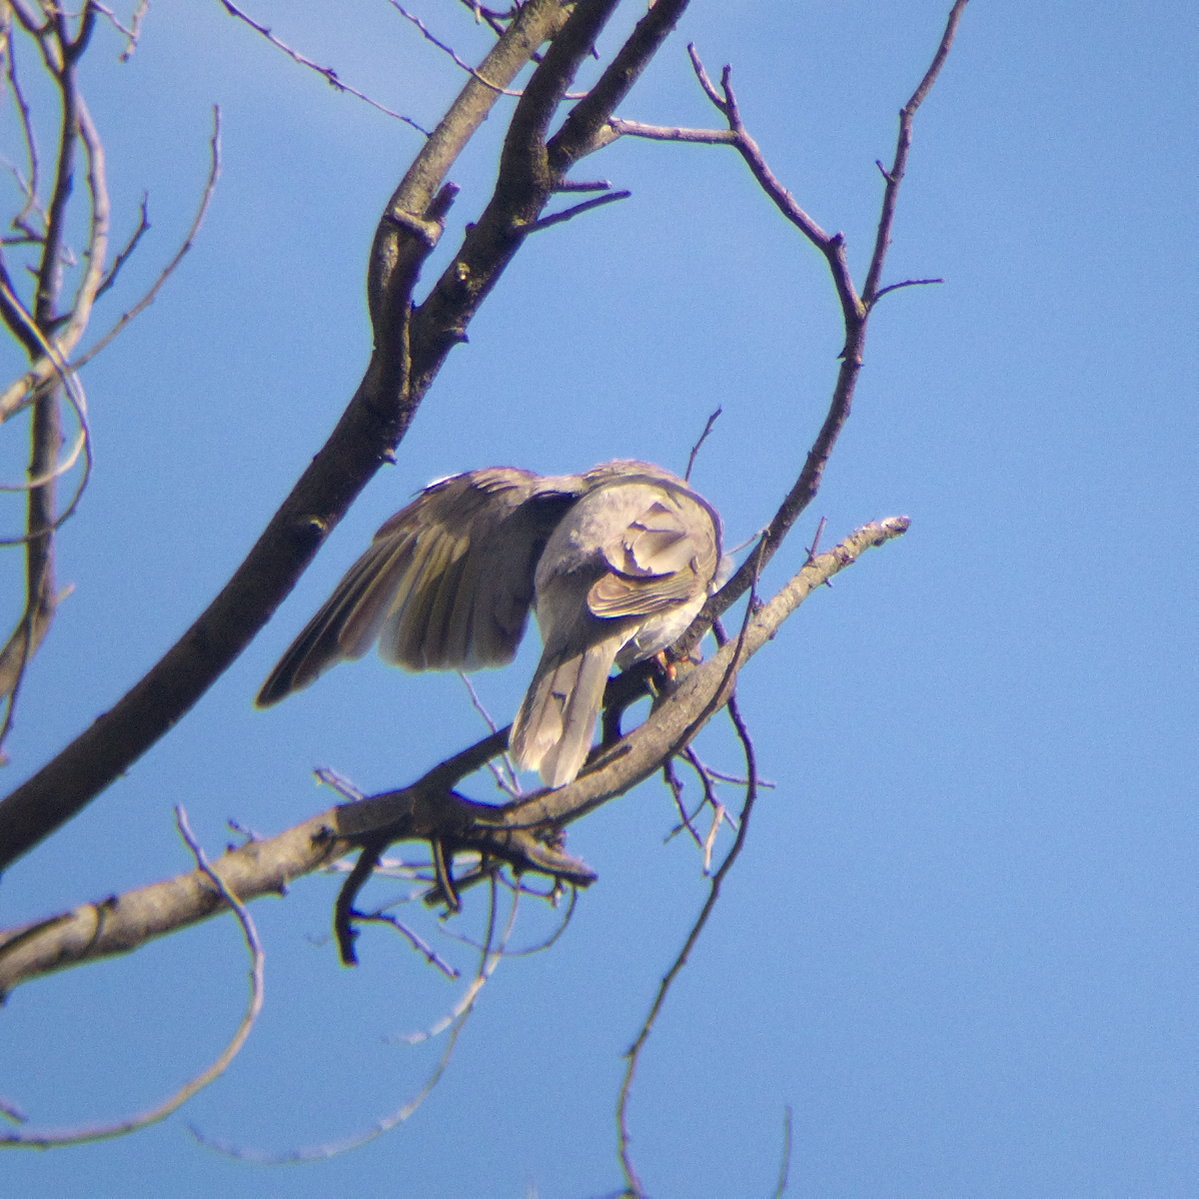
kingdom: Animalia
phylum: Chordata
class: Aves
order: Passeriformes
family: Meliphagidae
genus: Manorina
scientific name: Manorina melanocephala
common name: Noisy miner
